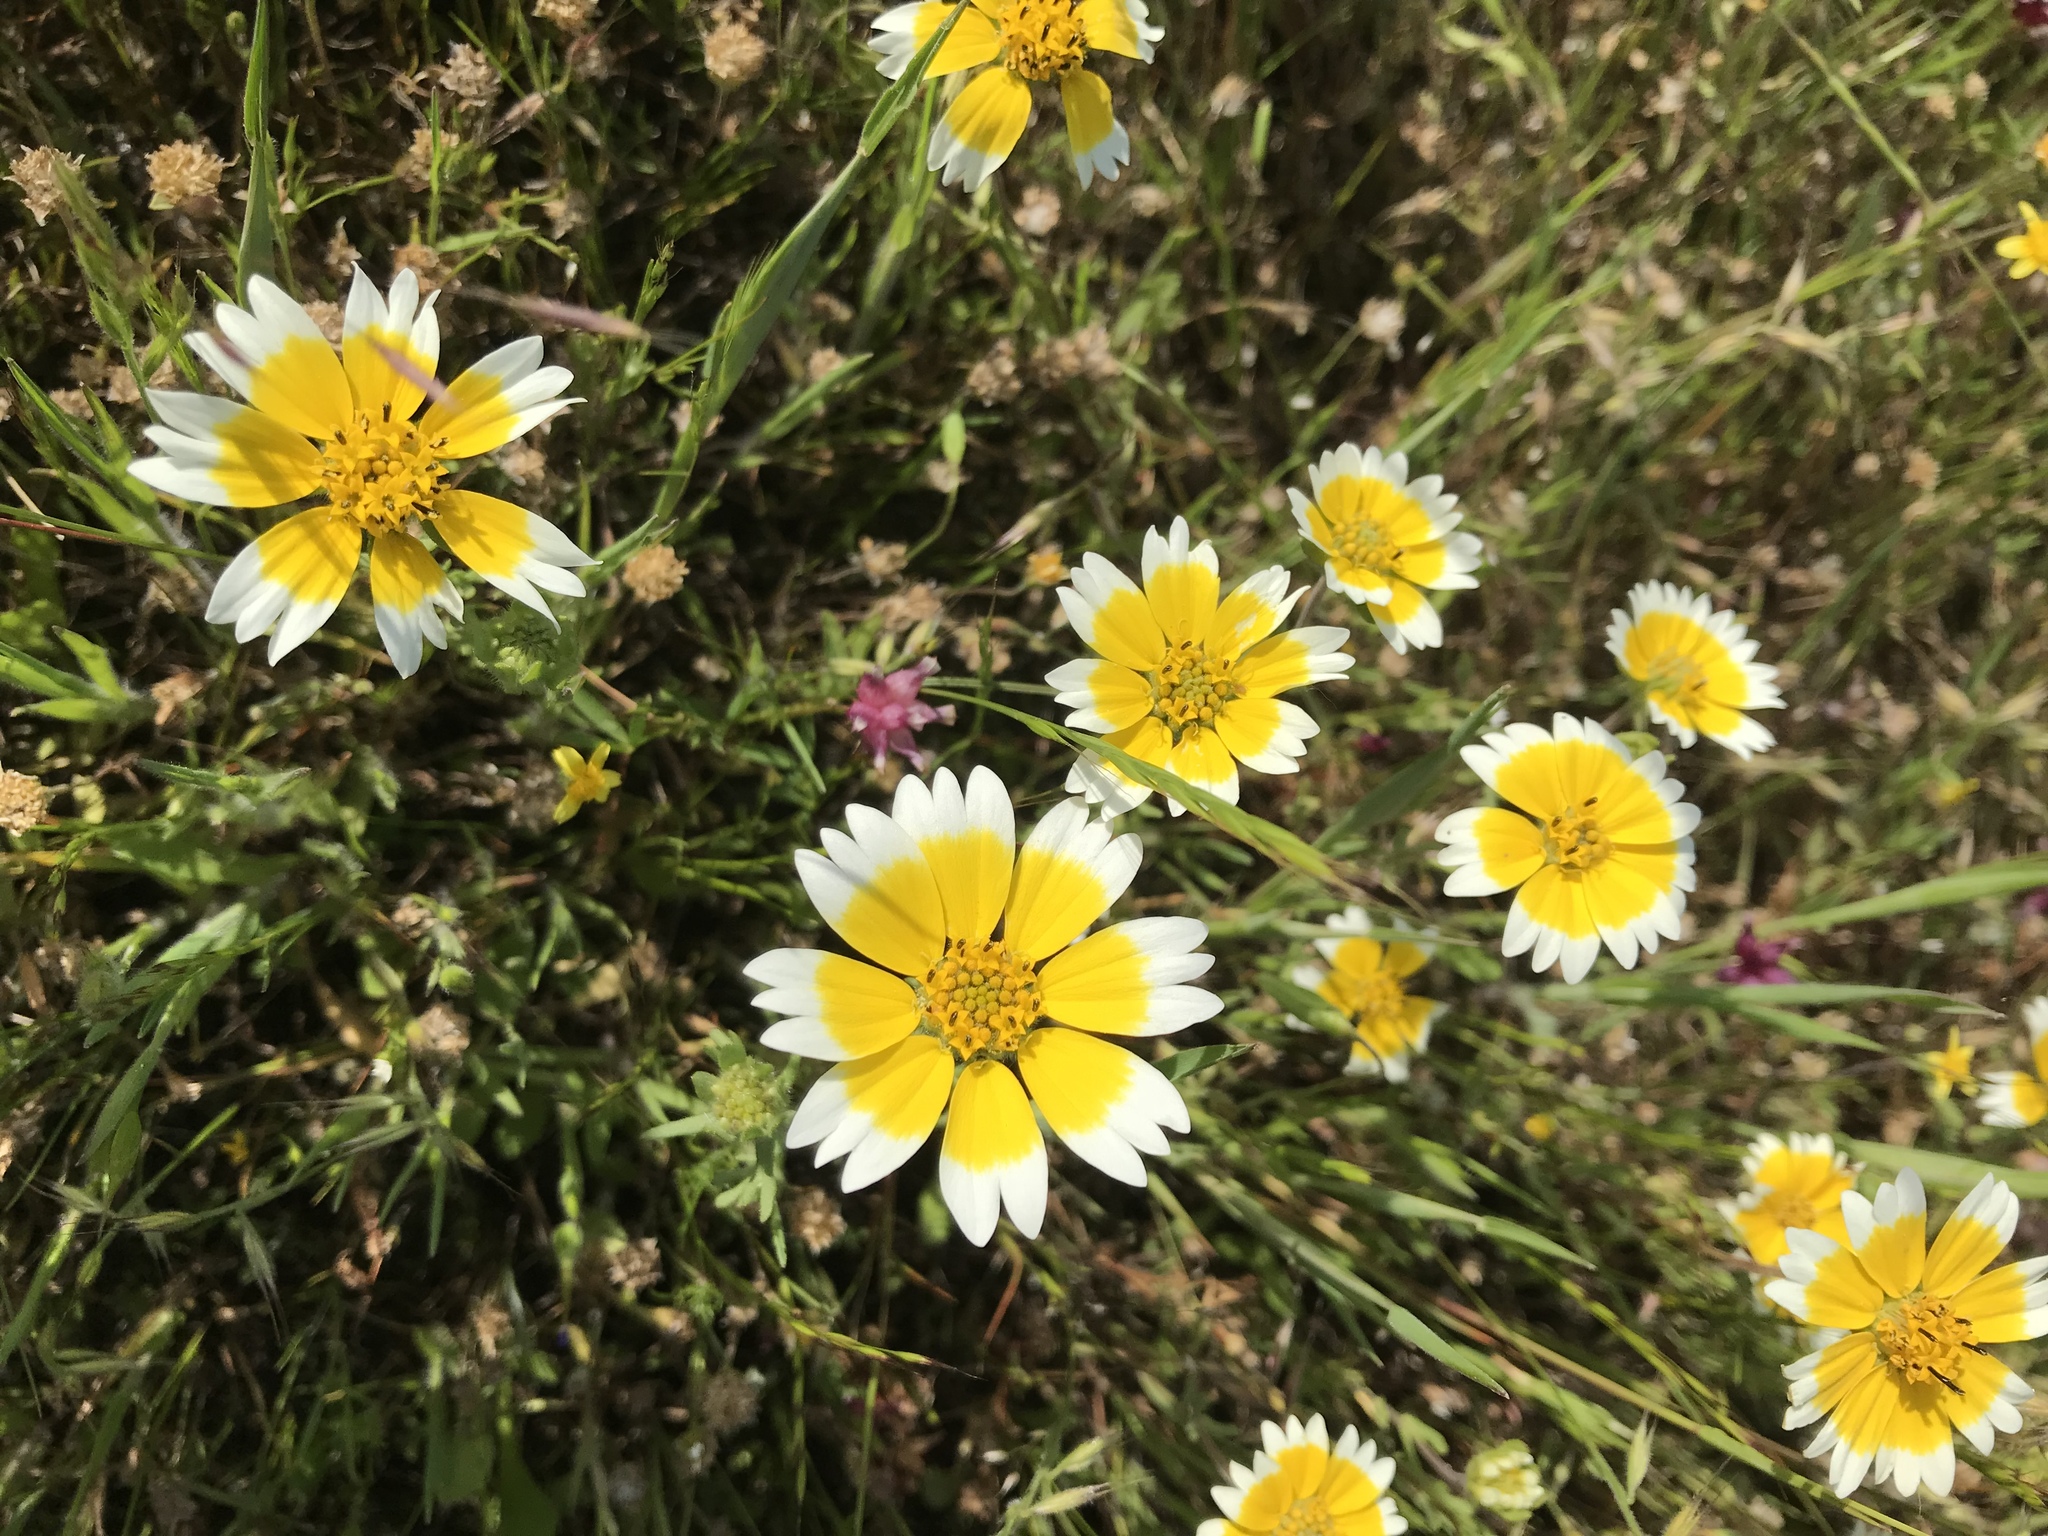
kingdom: Plantae
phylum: Tracheophyta
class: Magnoliopsida
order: Asterales
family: Asteraceae
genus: Layia
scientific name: Layia fremontii
